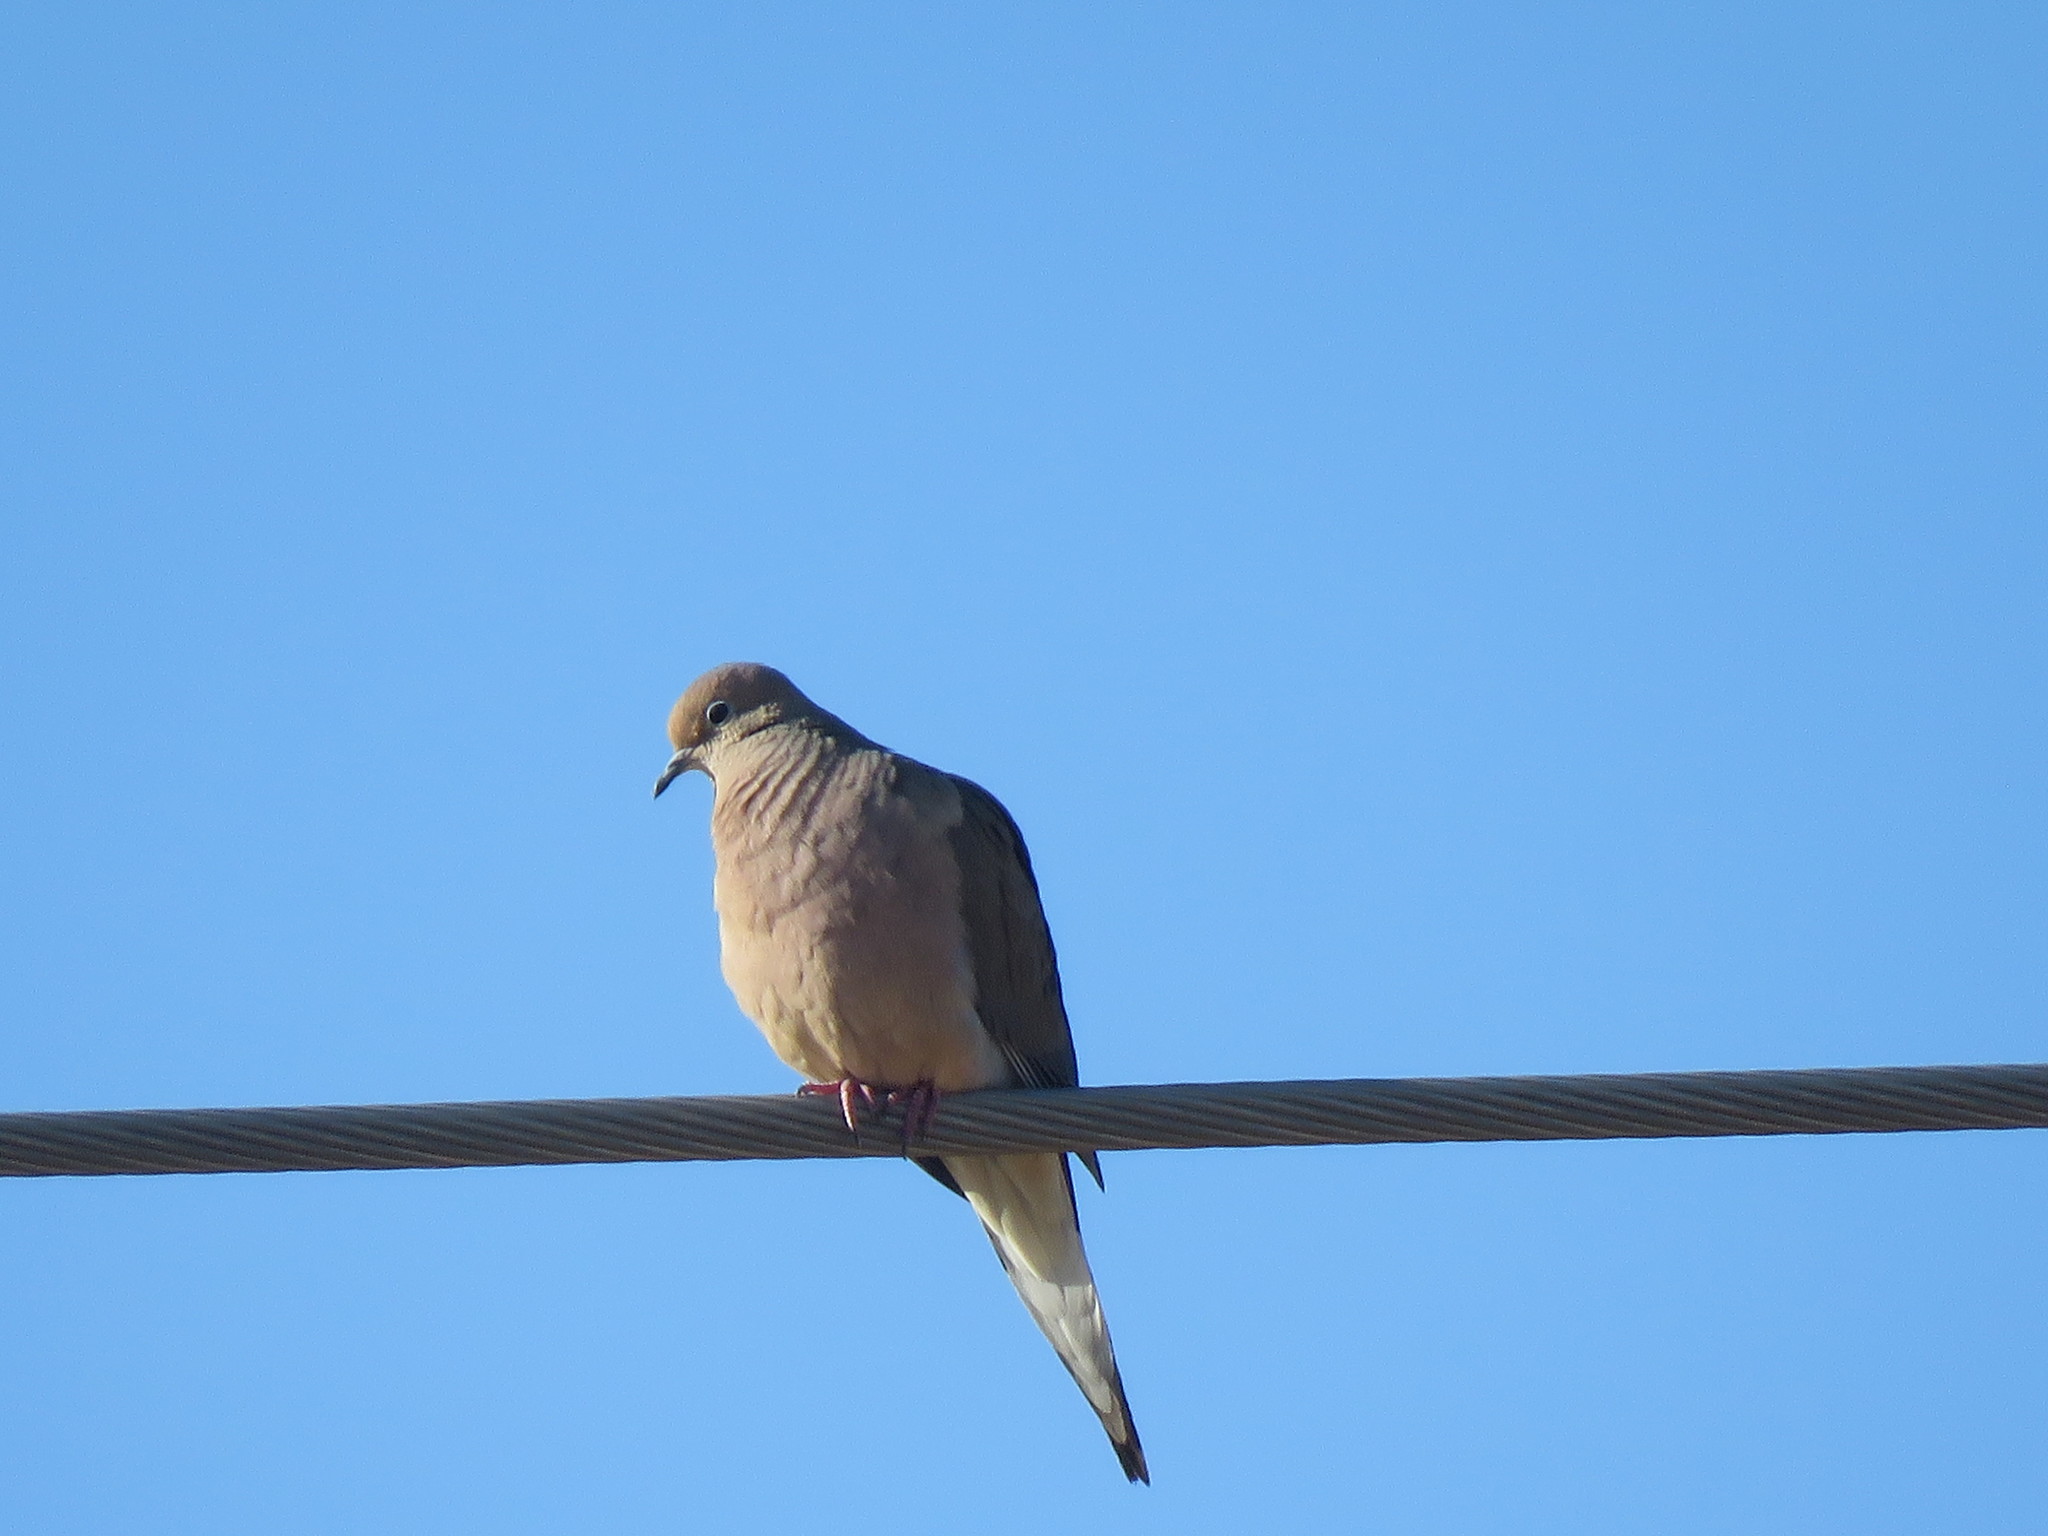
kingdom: Animalia
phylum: Chordata
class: Aves
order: Columbiformes
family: Columbidae
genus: Zenaida
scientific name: Zenaida macroura
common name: Mourning dove
